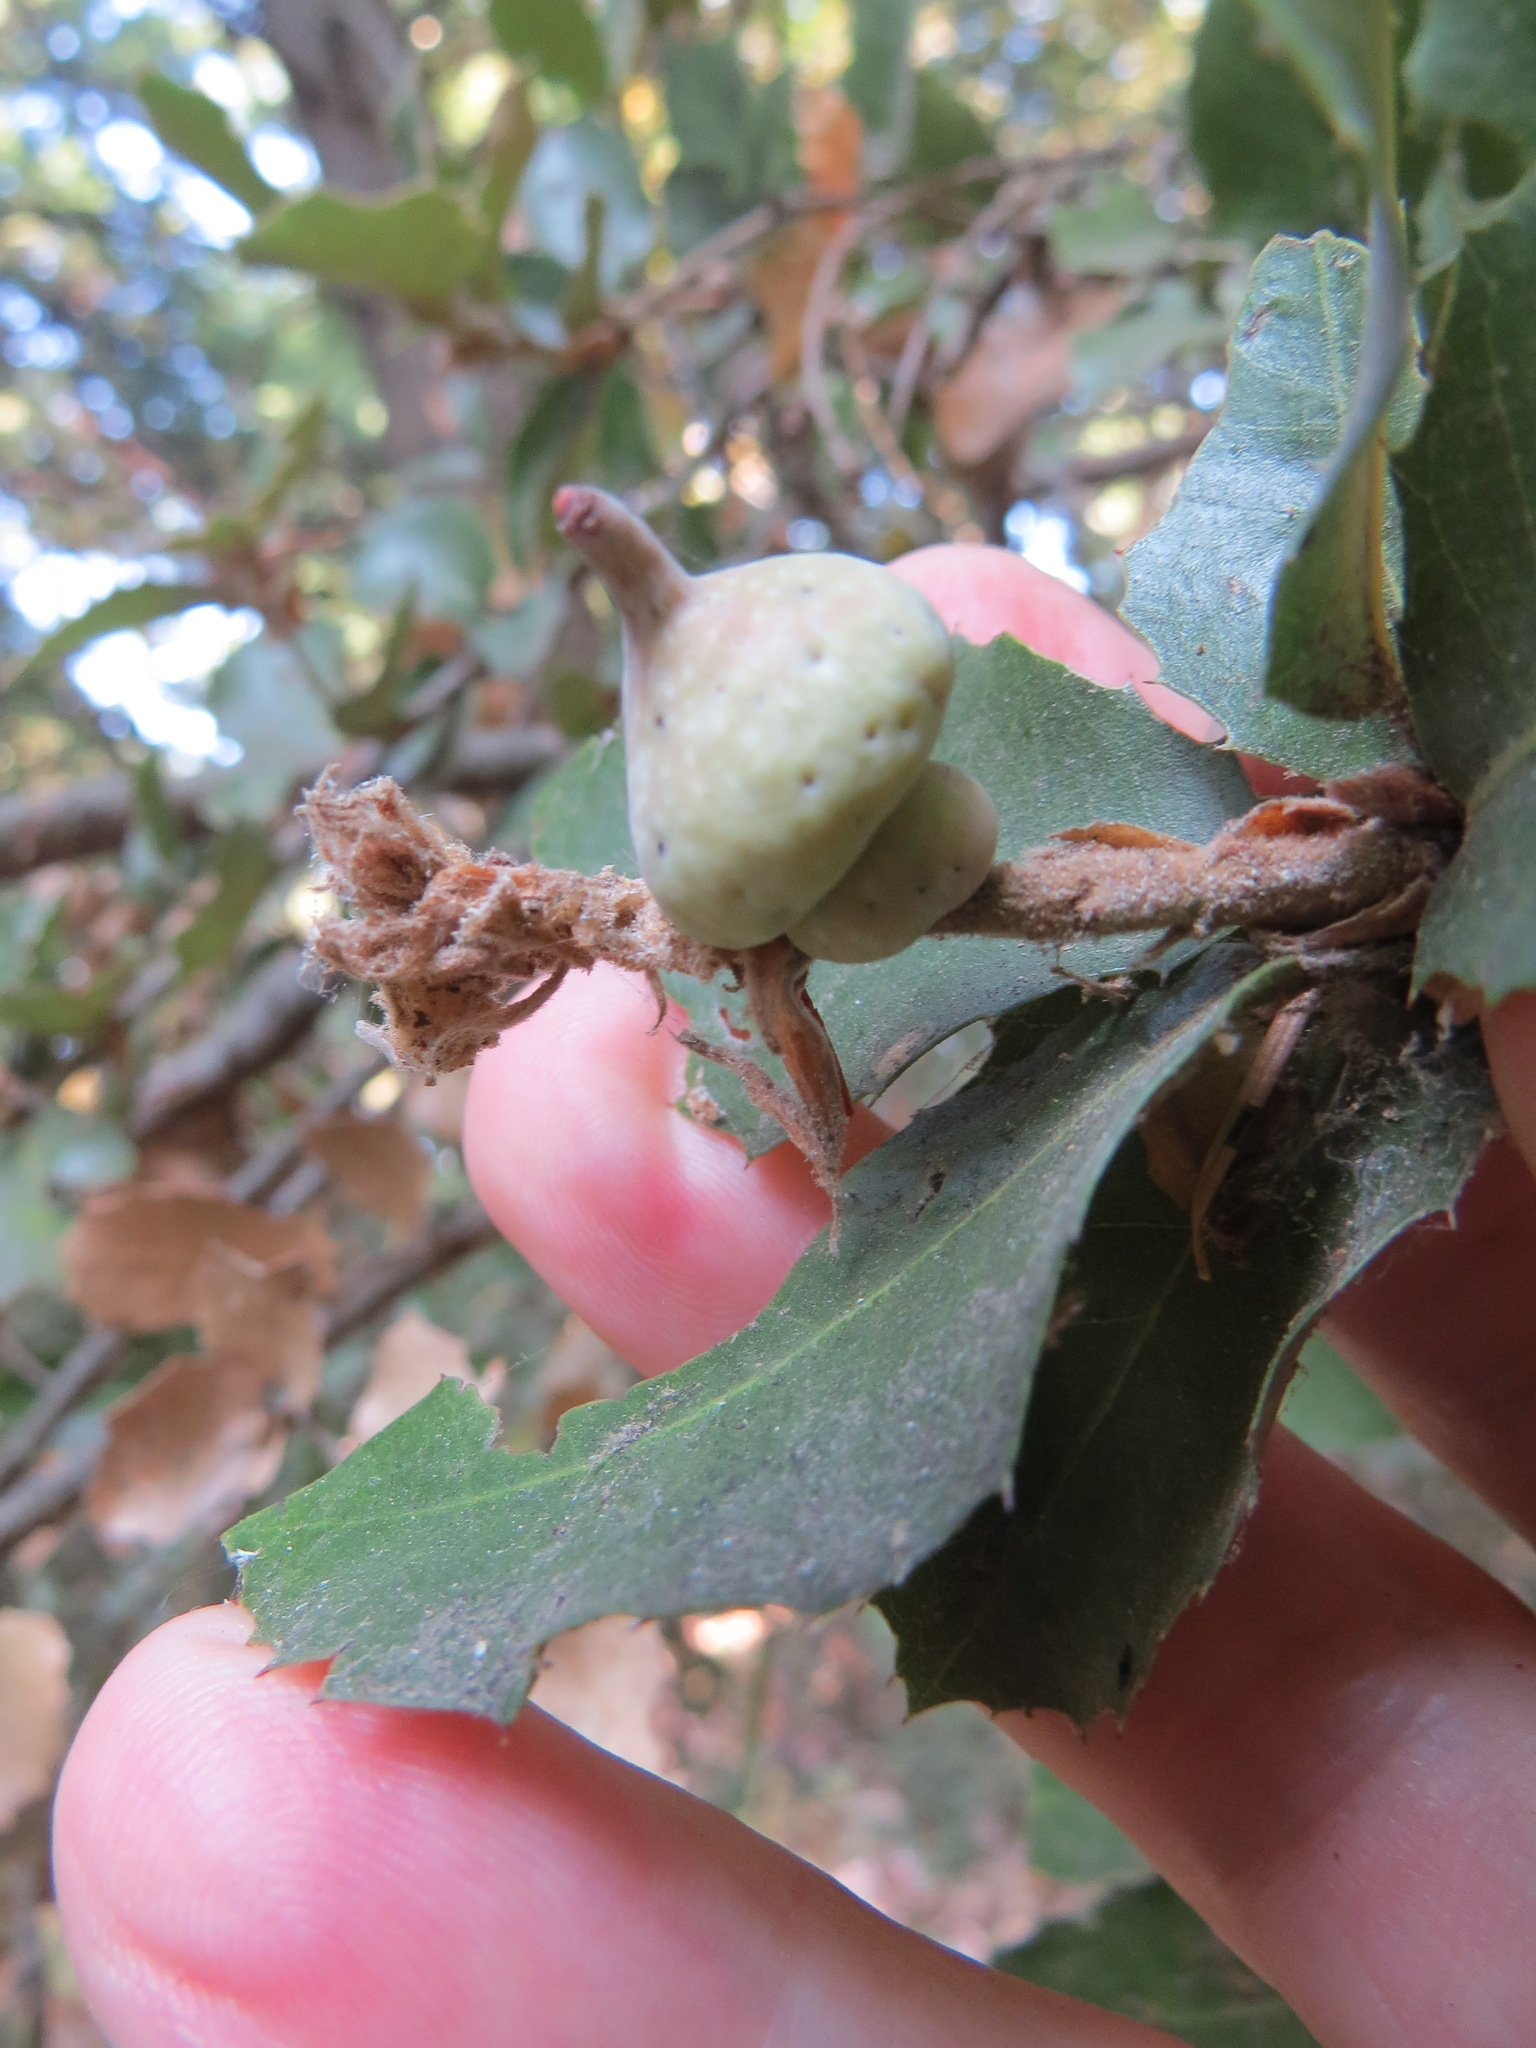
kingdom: Animalia
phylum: Arthropoda
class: Insecta
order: Hymenoptera
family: Cynipidae
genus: Heteroecus
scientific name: Heteroecus
